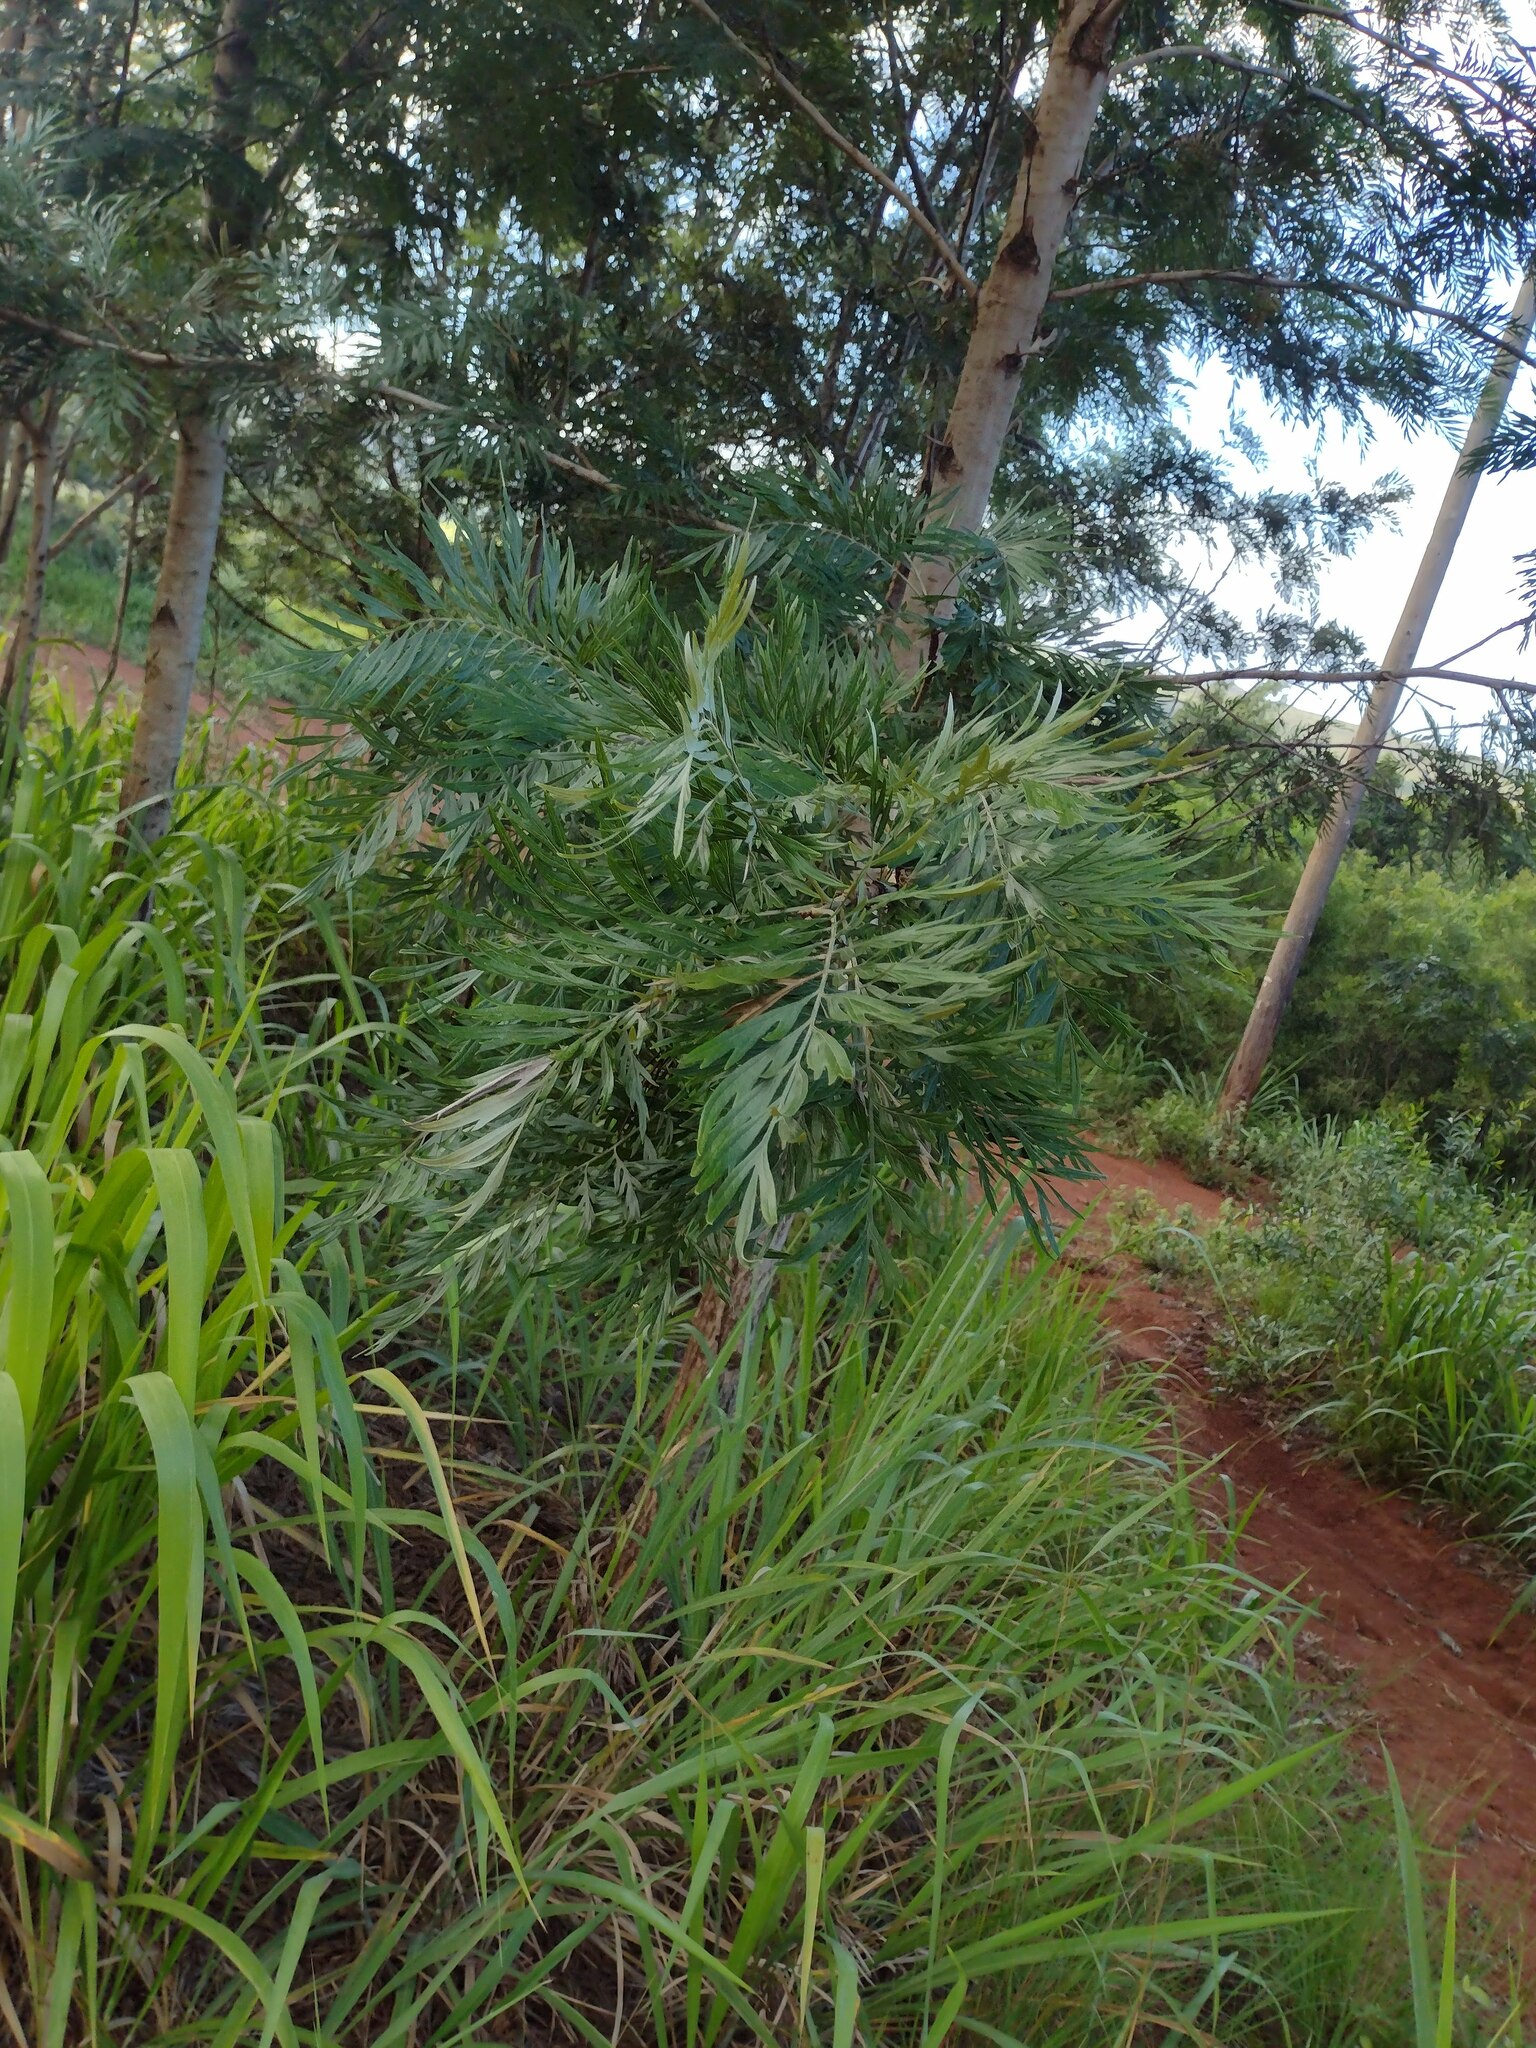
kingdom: Plantae
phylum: Tracheophyta
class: Magnoliopsida
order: Proteales
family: Proteaceae
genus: Grevillea
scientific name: Grevillea robusta
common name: Silkoak
